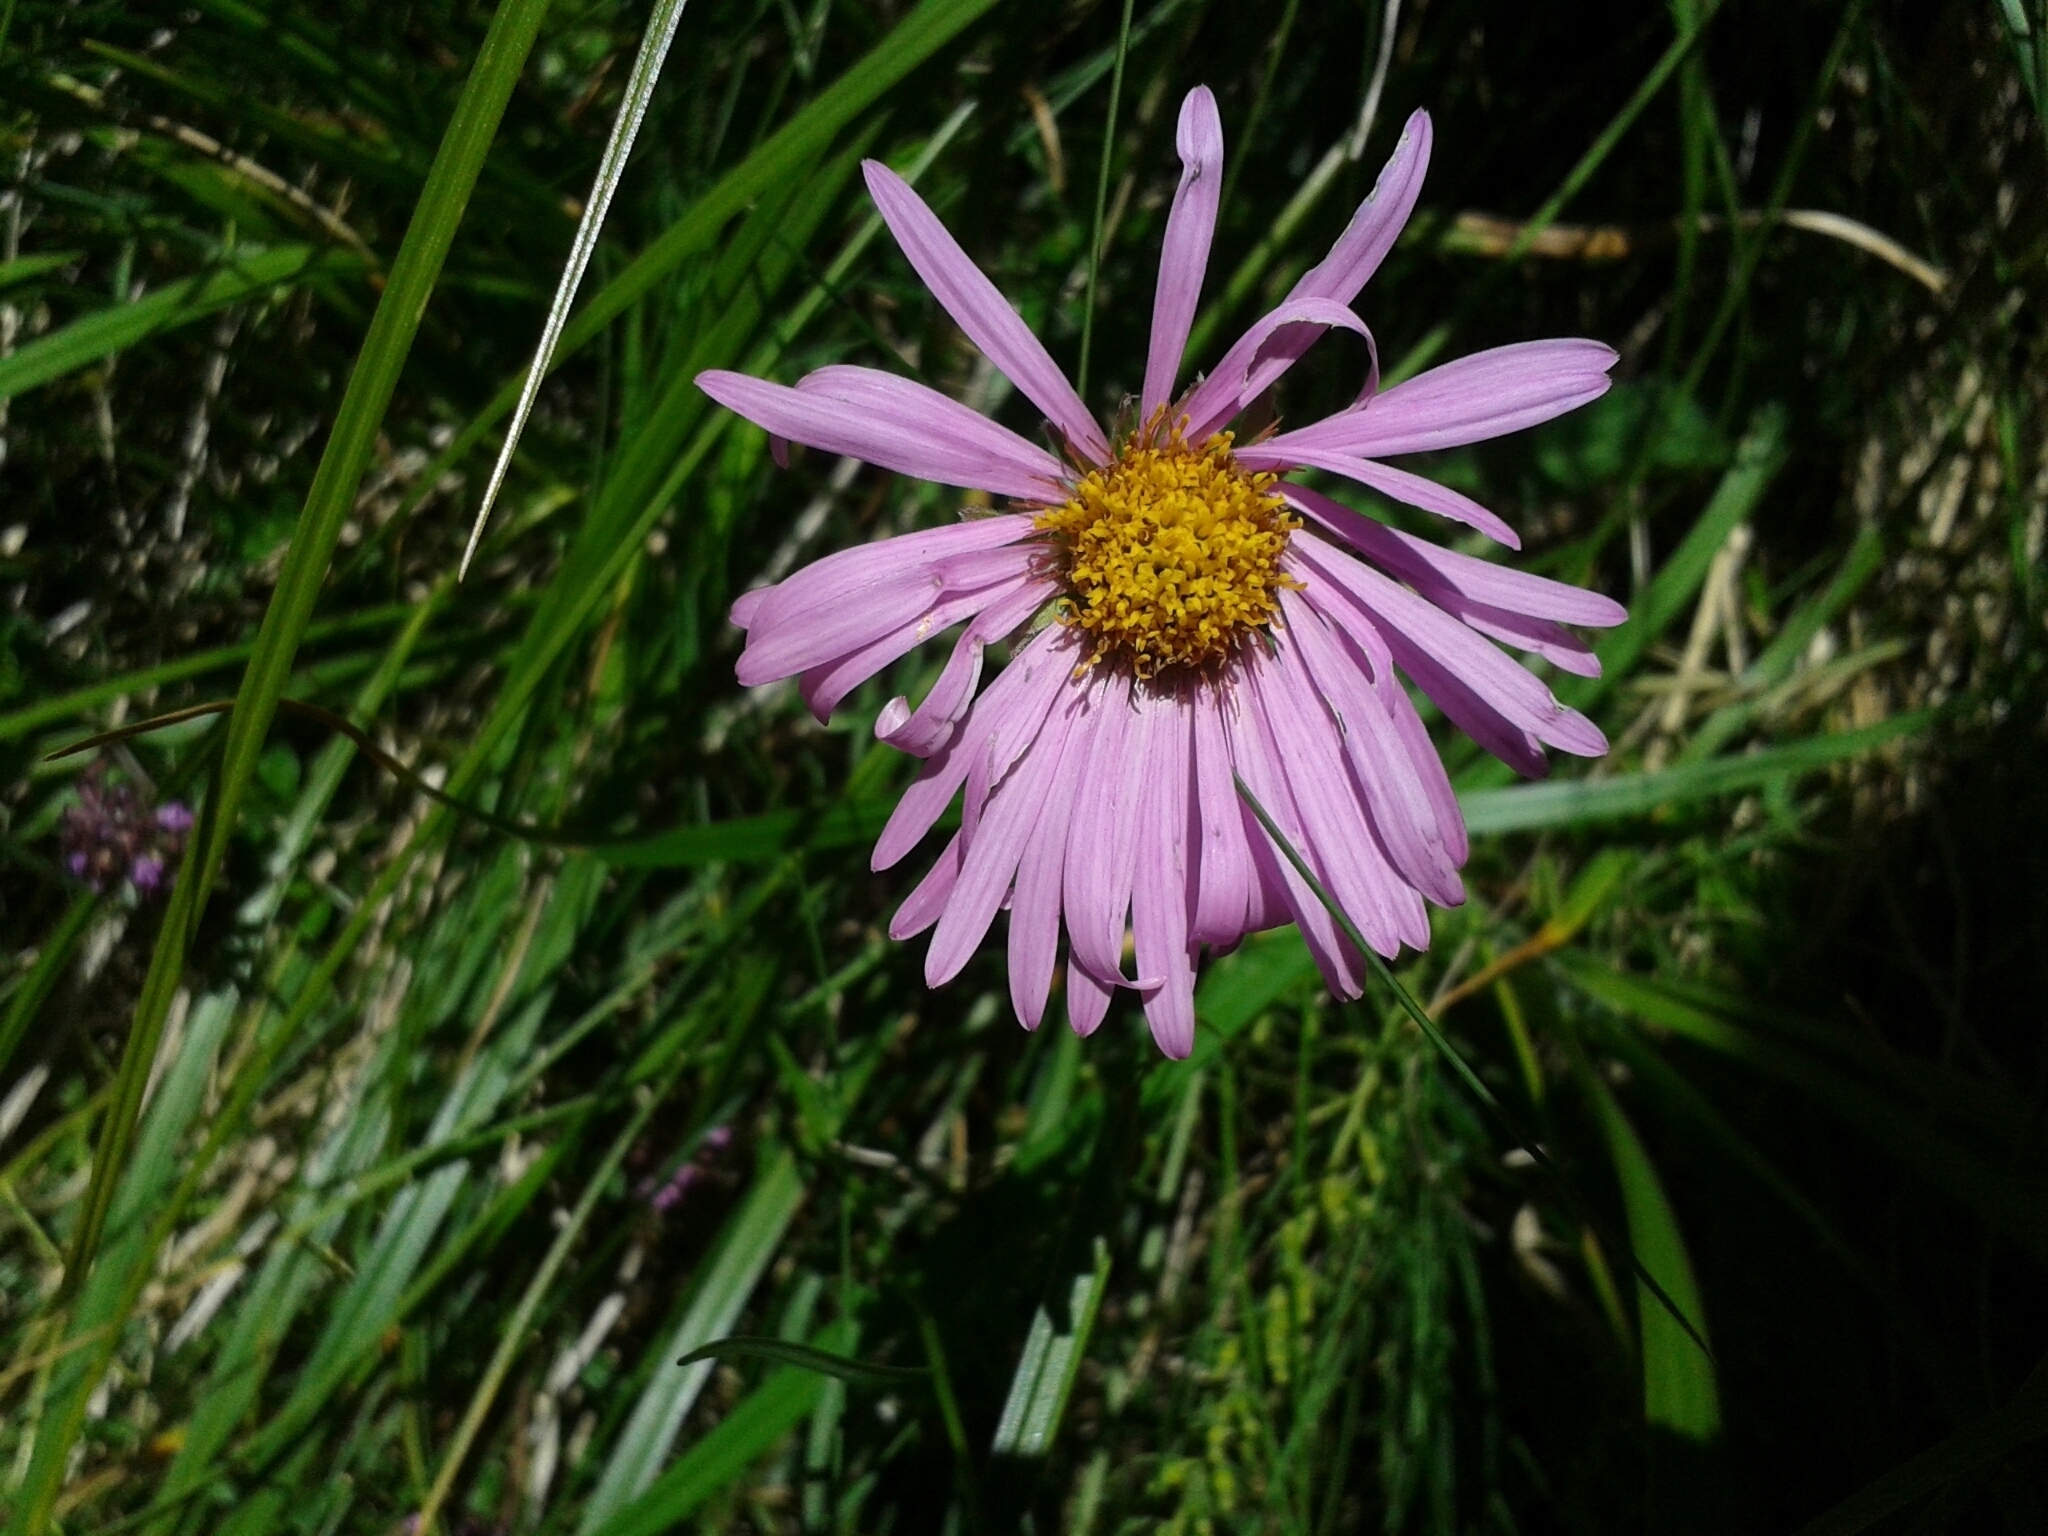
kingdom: Plantae
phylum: Tracheophyta
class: Magnoliopsida
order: Asterales
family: Asteraceae
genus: Aster
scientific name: Aster alpinus
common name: Alpine aster
